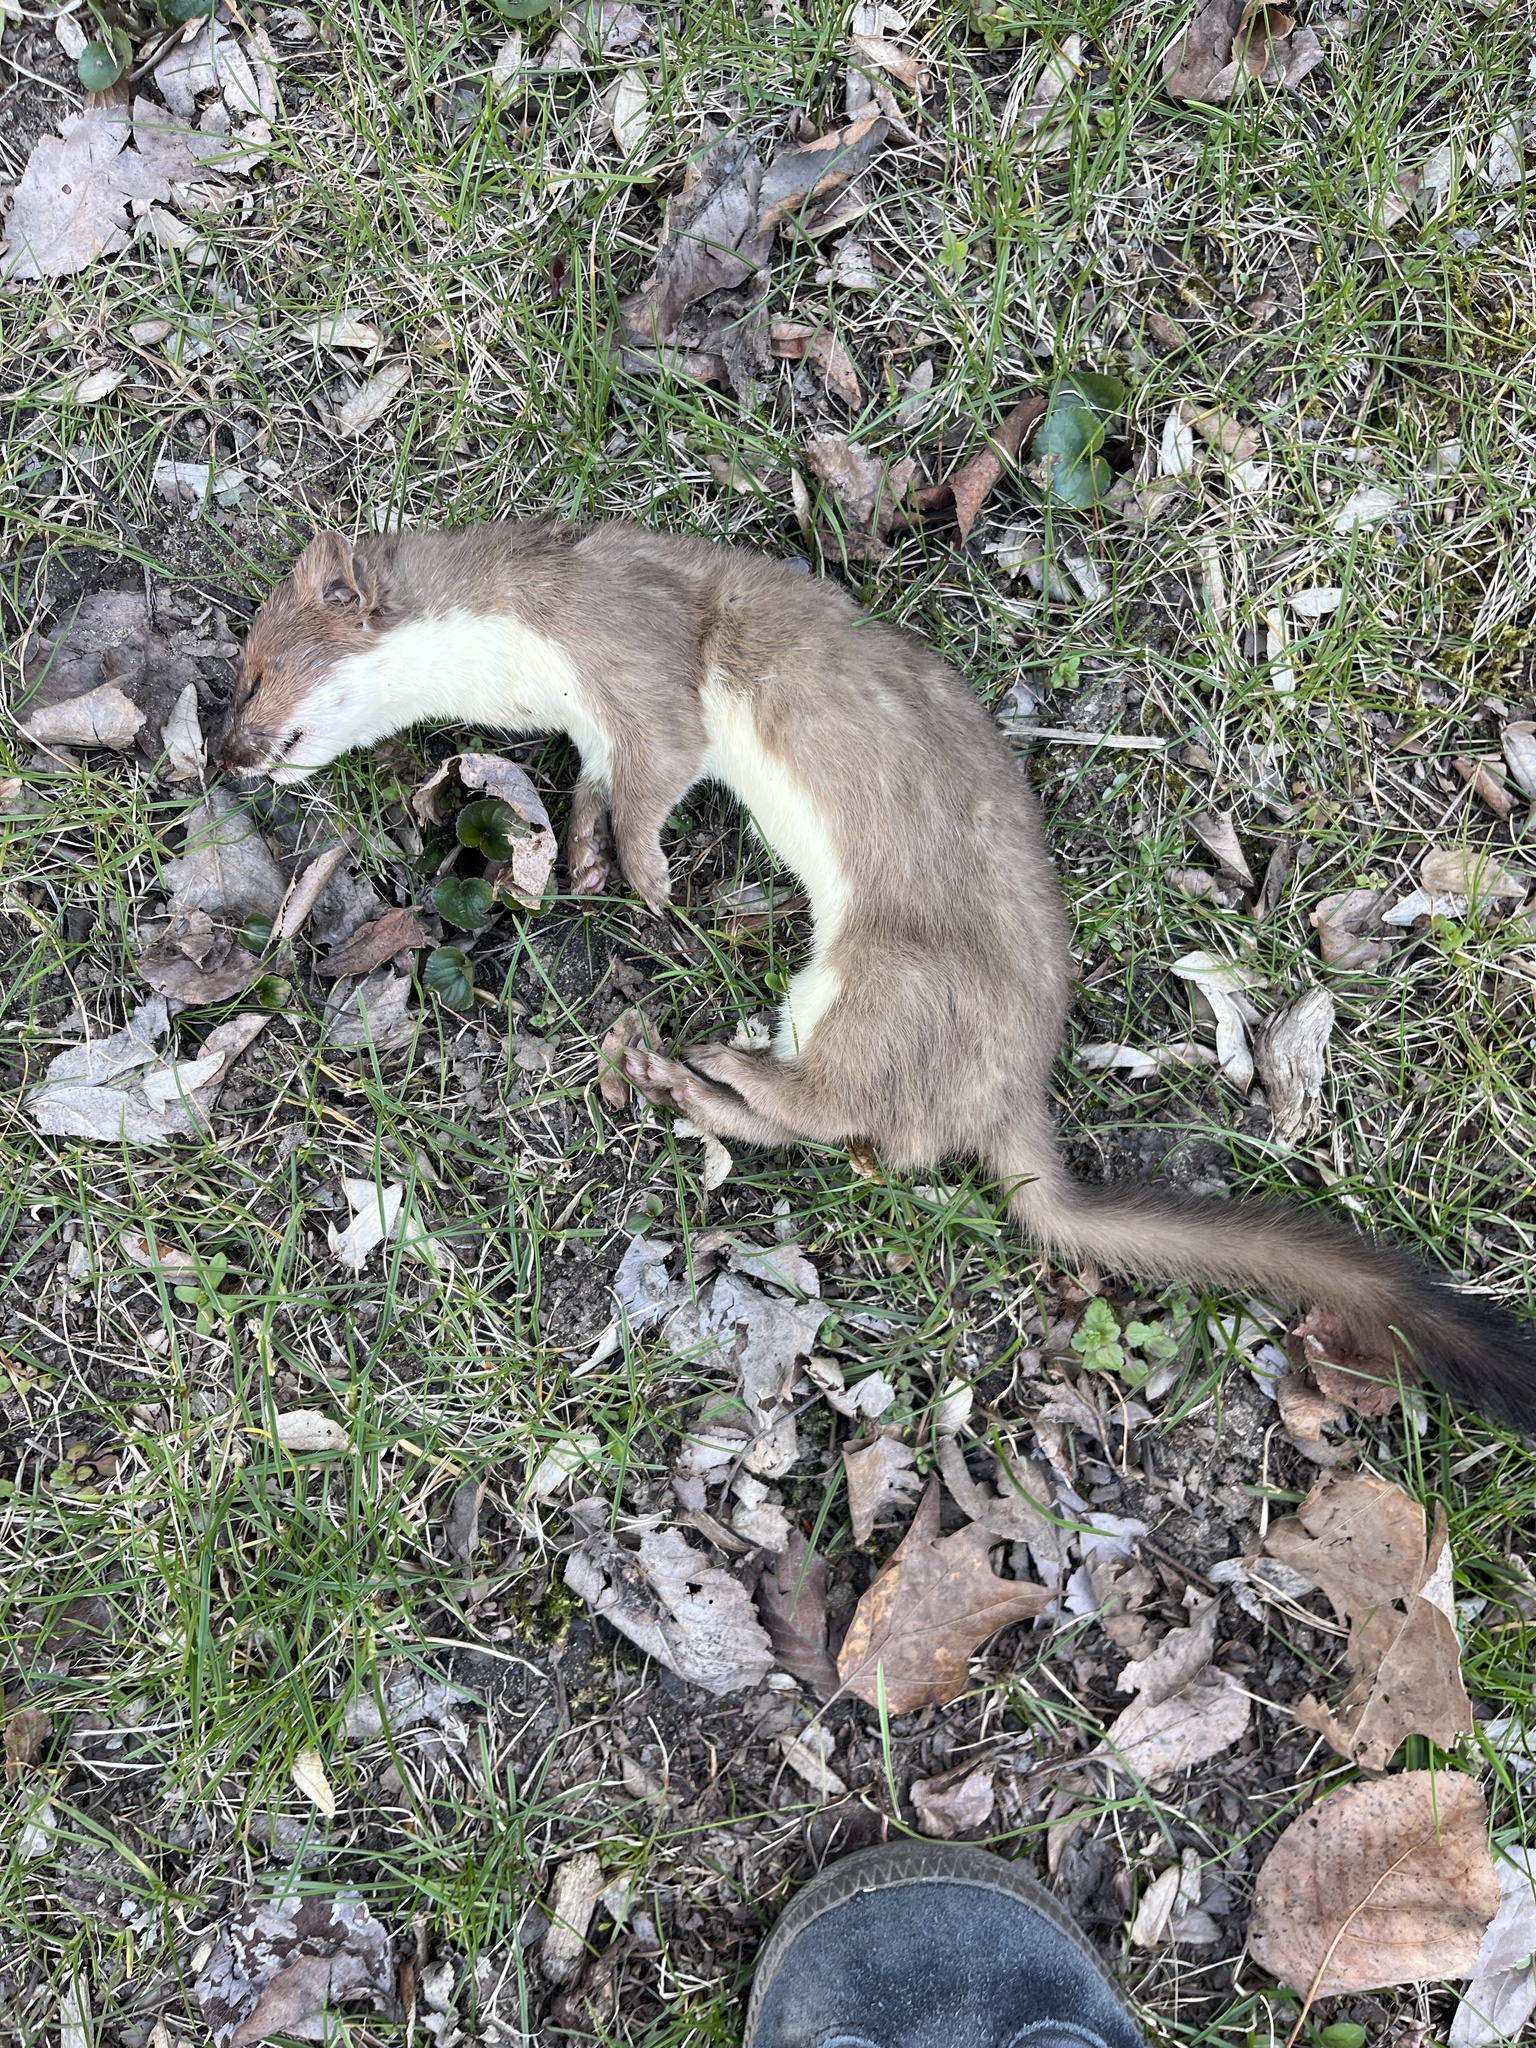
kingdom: Animalia
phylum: Chordata
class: Mammalia
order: Carnivora
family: Mustelidae
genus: Mustela
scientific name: Mustela
